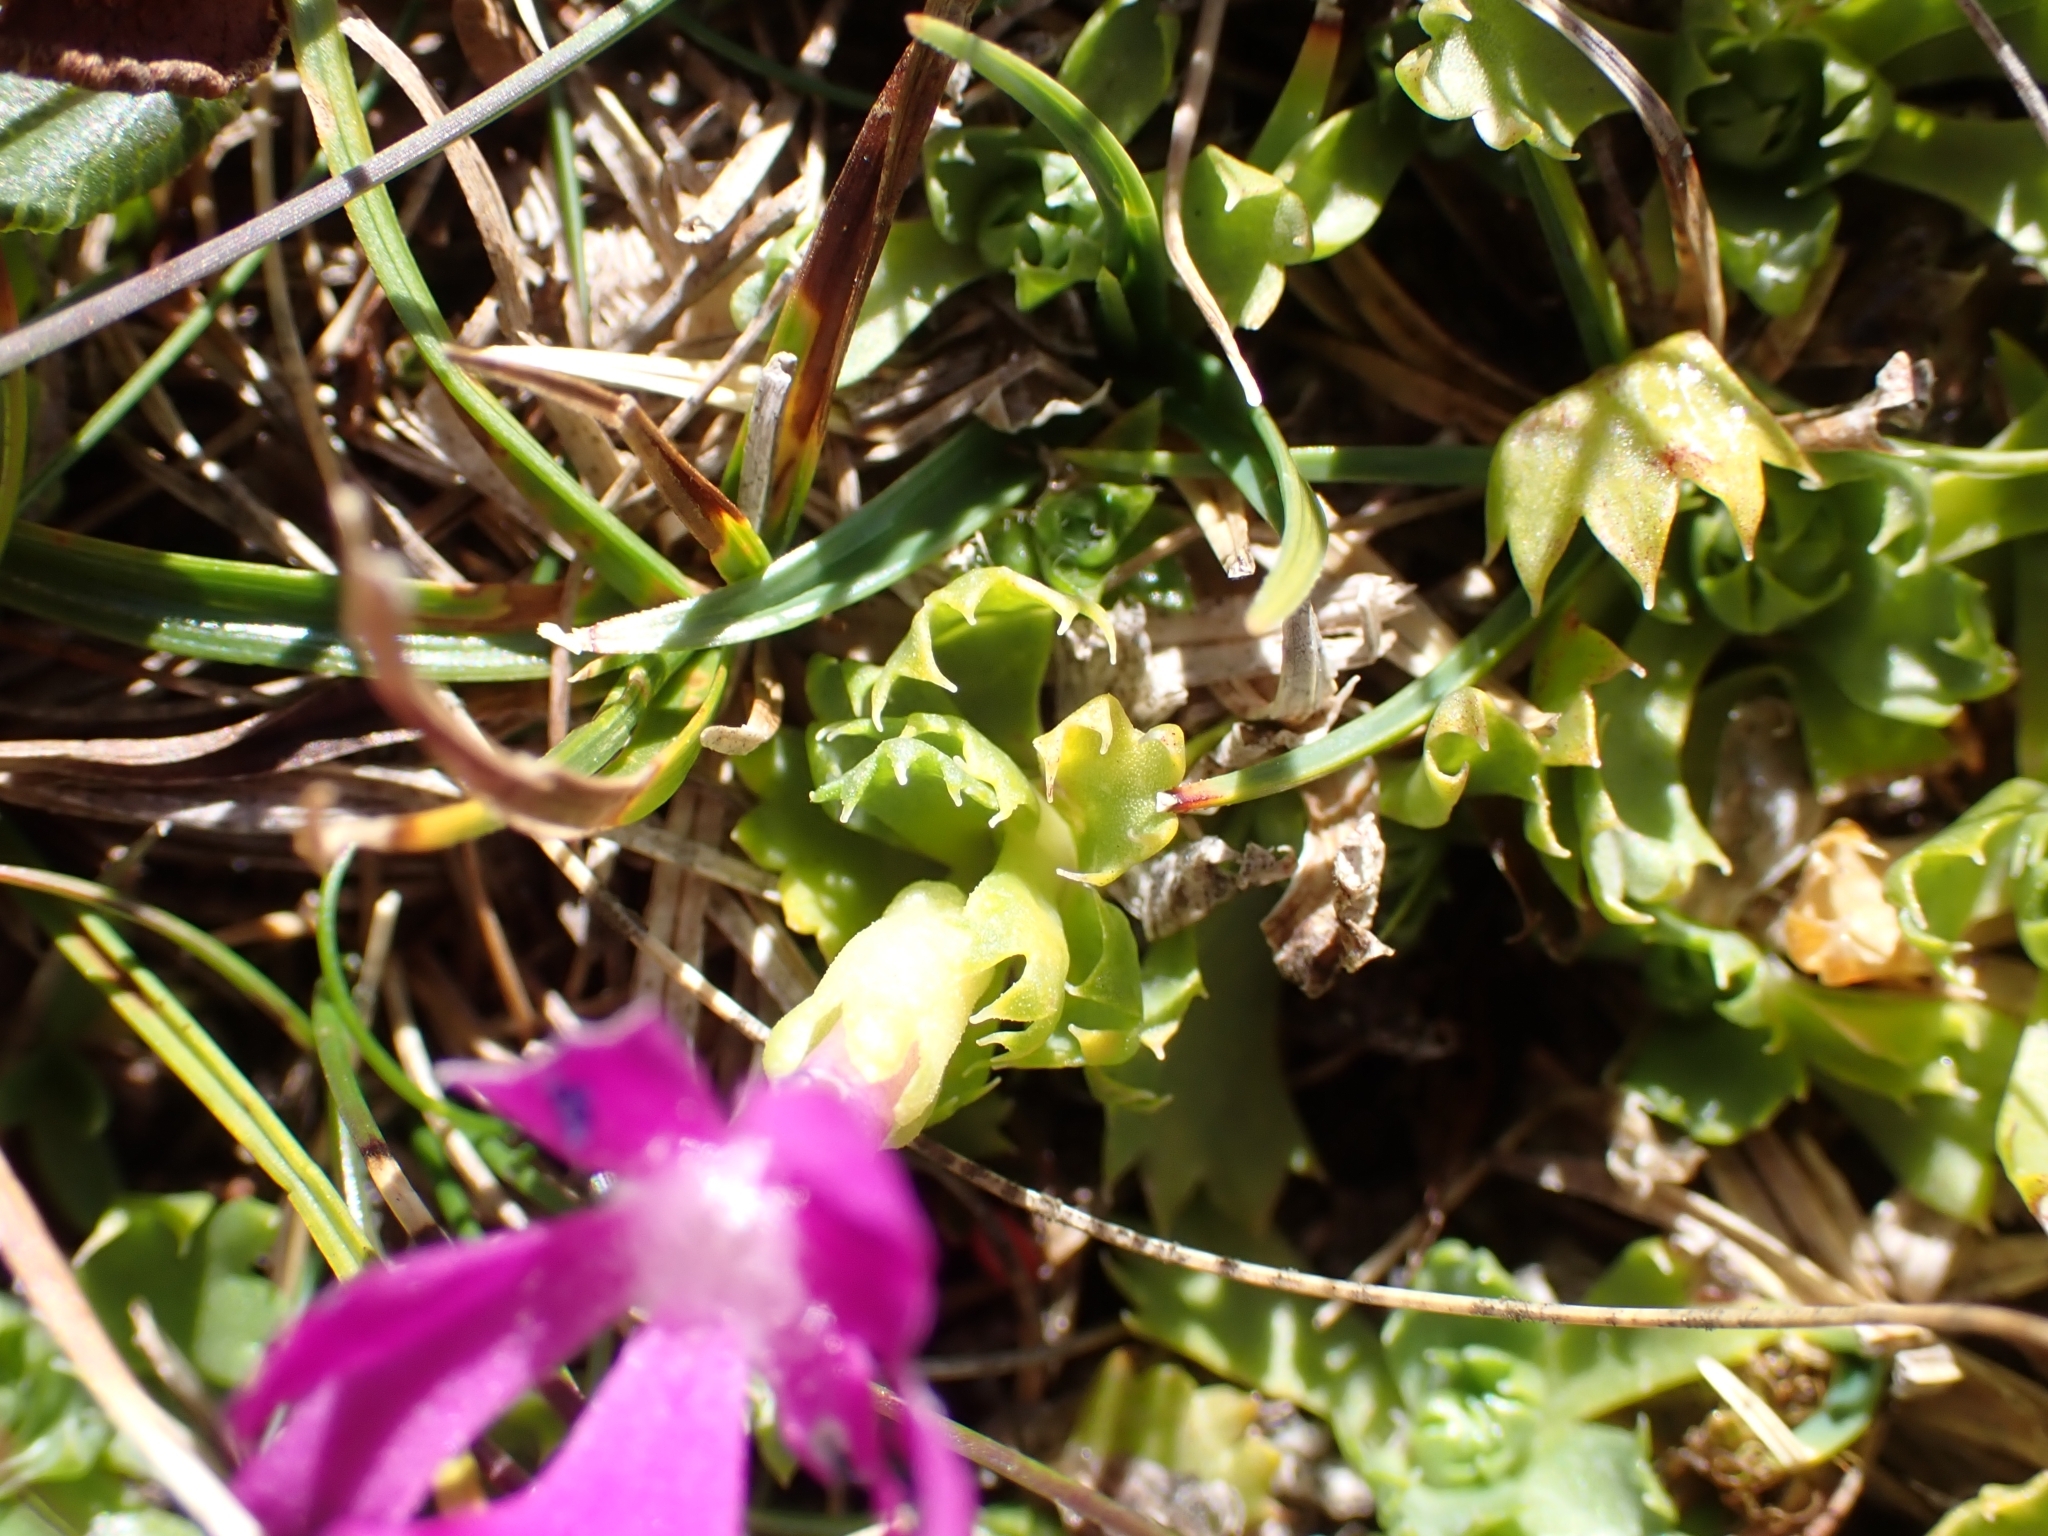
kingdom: Plantae
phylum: Tracheophyta
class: Magnoliopsida
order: Ericales
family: Primulaceae
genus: Primula
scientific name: Primula minima
